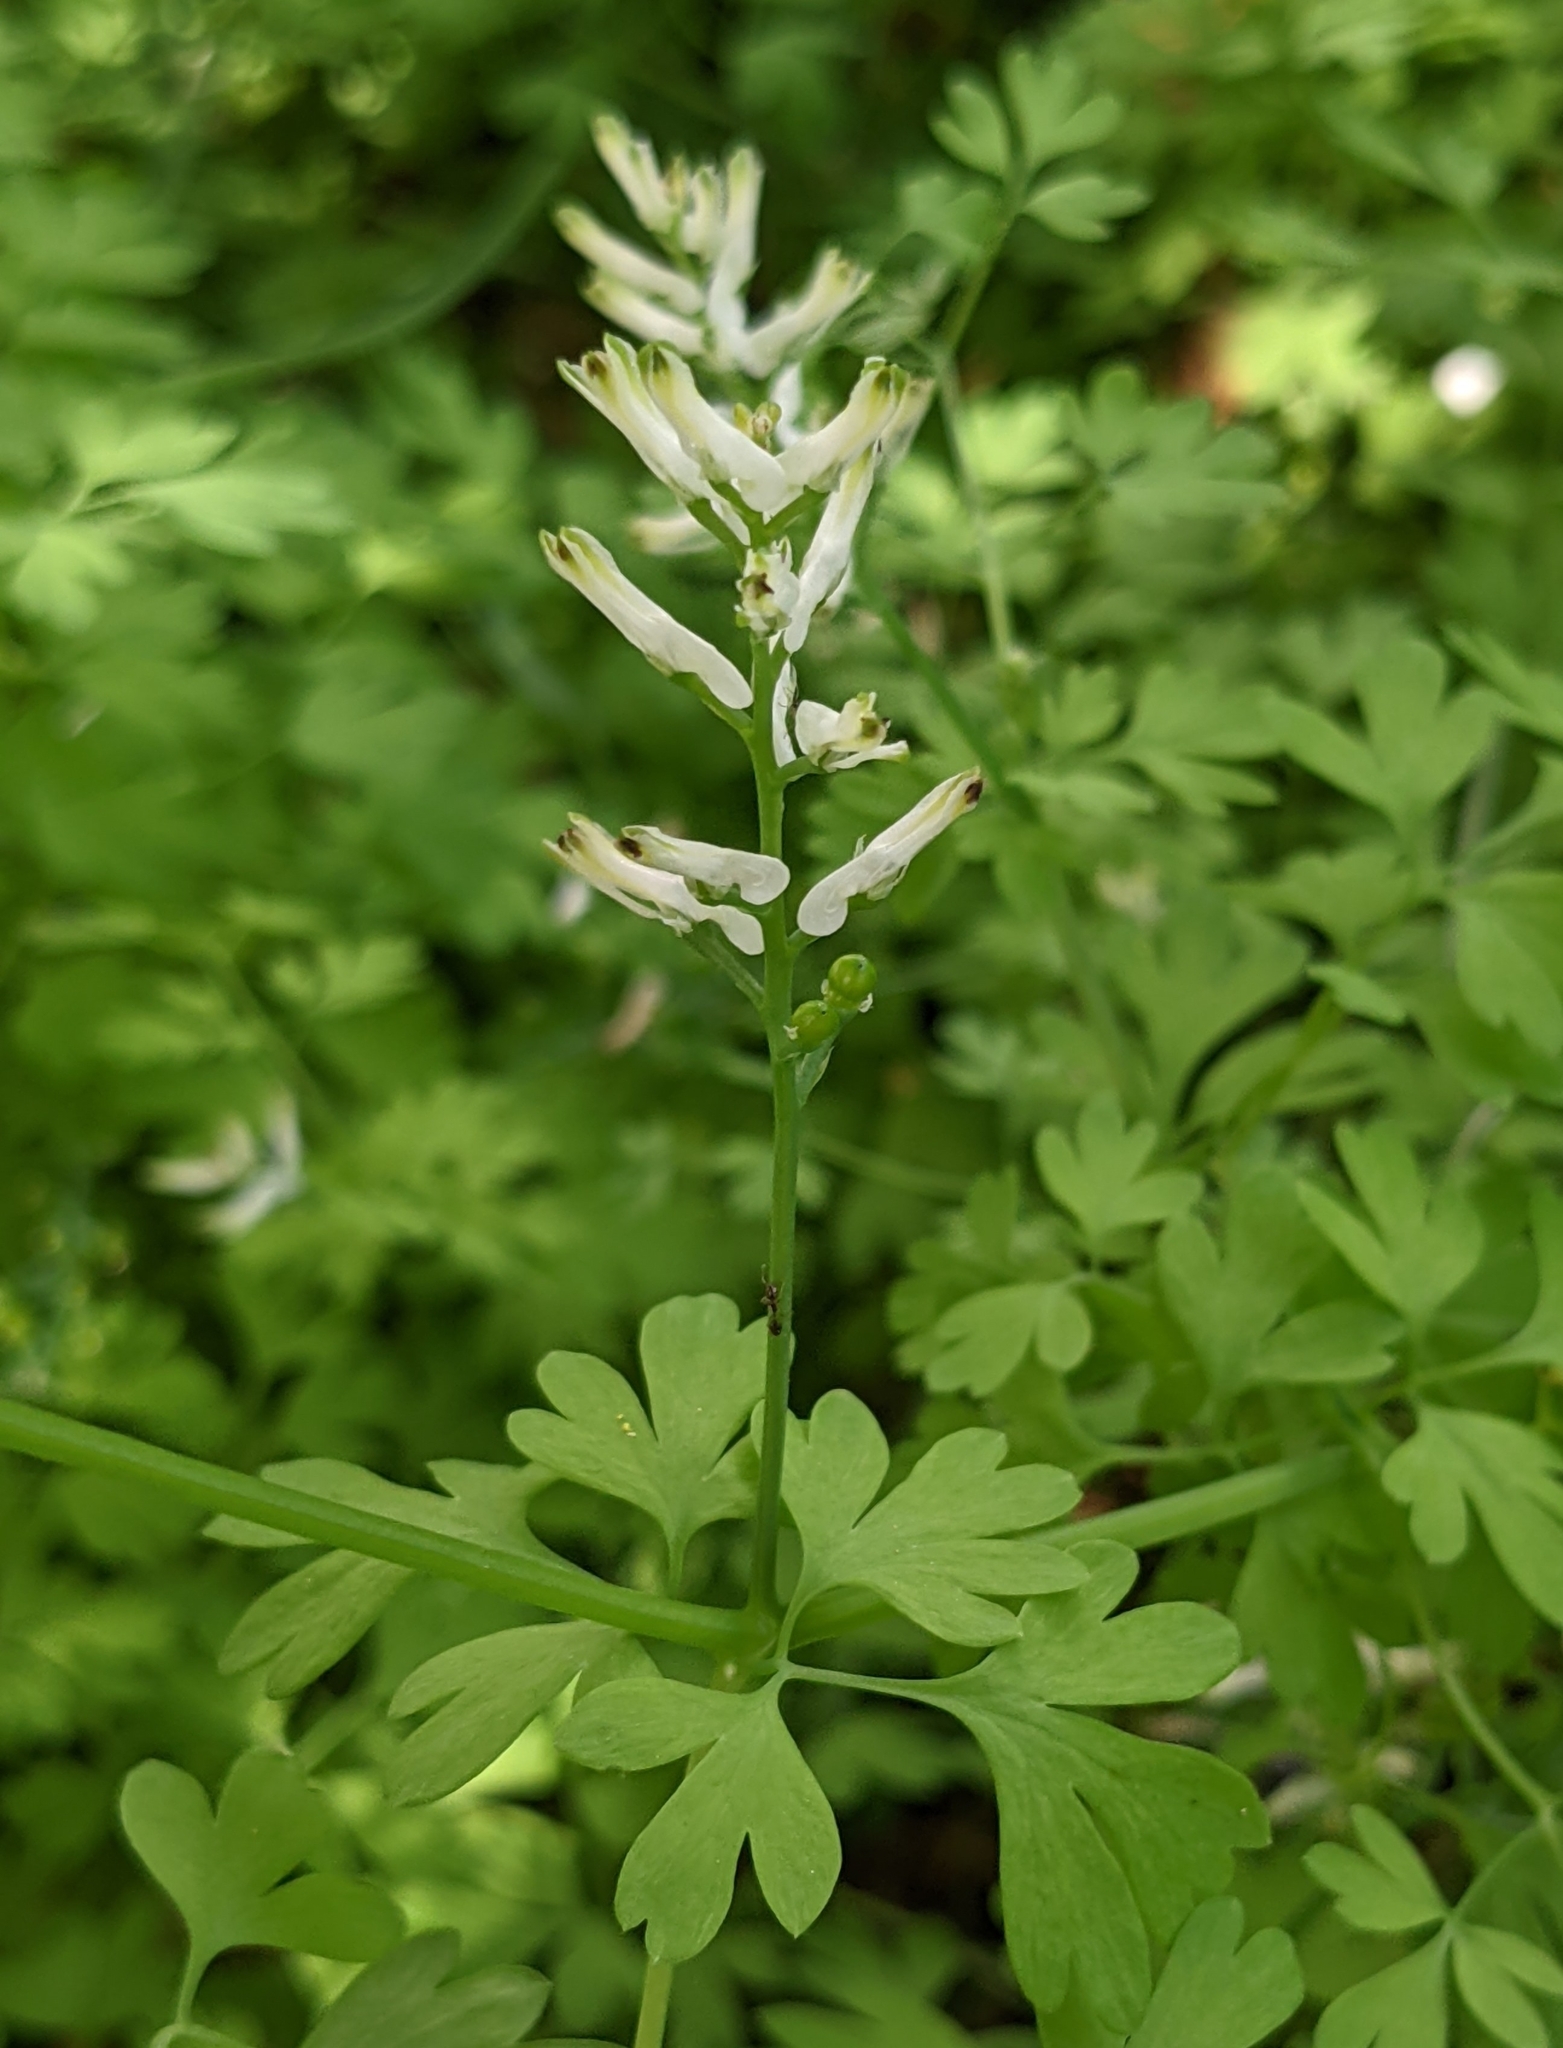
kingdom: Plantae
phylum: Tracheophyta
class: Magnoliopsida
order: Ranunculales
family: Papaveraceae
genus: Fumaria
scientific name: Fumaria judaica
